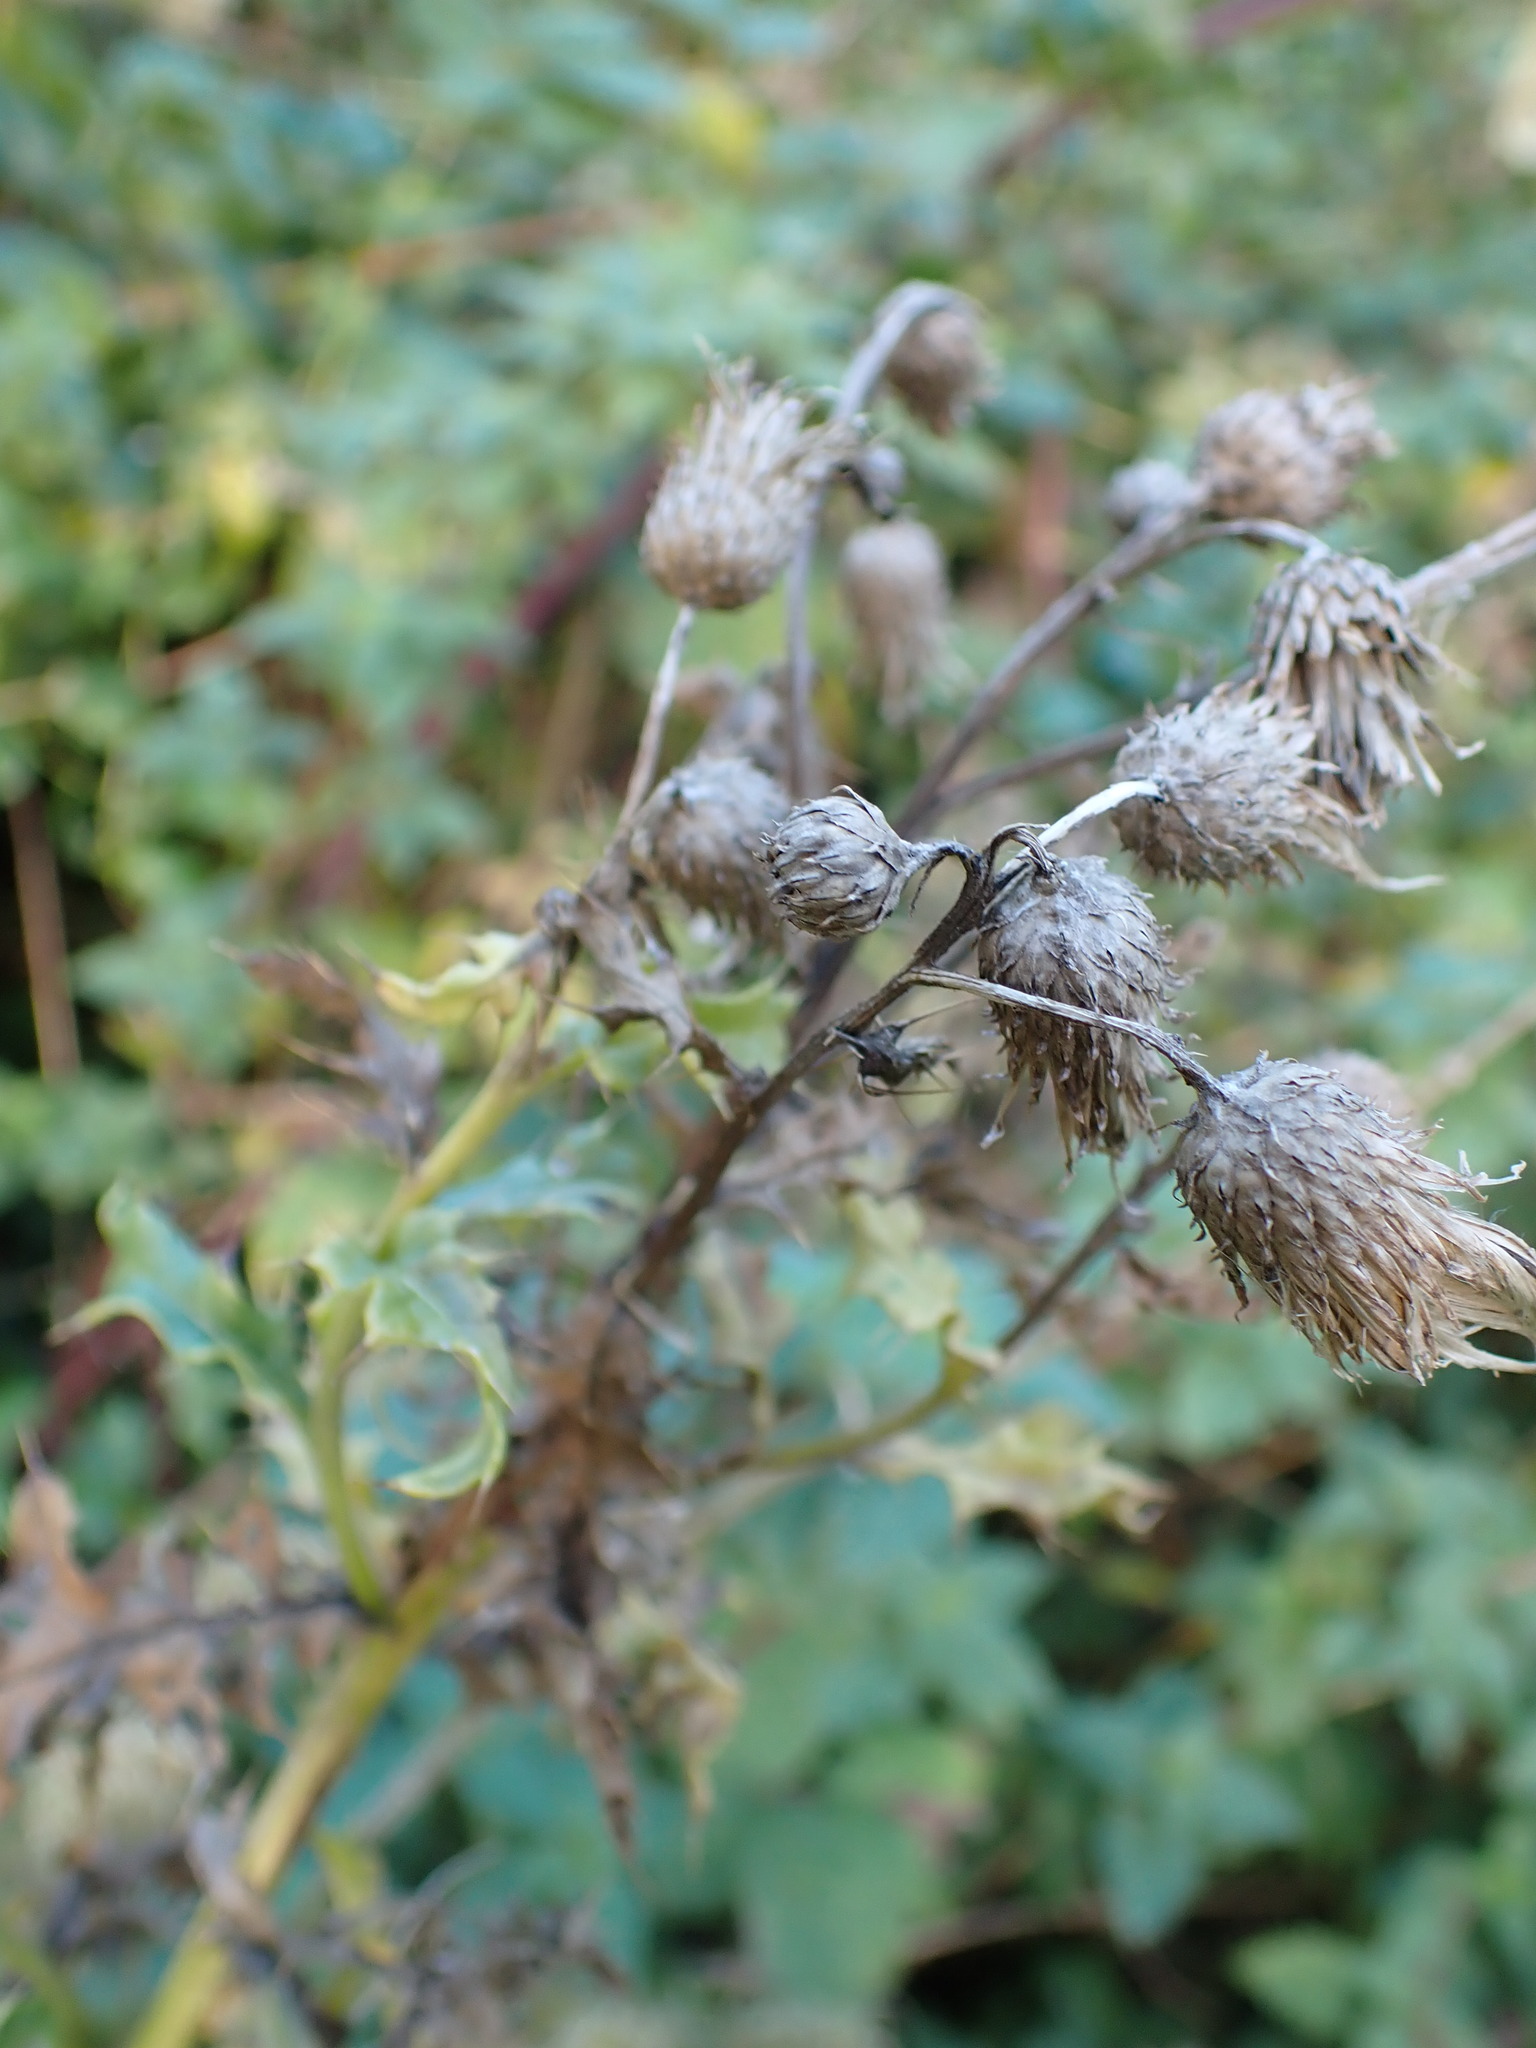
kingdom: Plantae
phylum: Tracheophyta
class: Magnoliopsida
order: Asterales
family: Asteraceae
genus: Cirsium
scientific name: Cirsium arvense
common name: Creeping thistle
